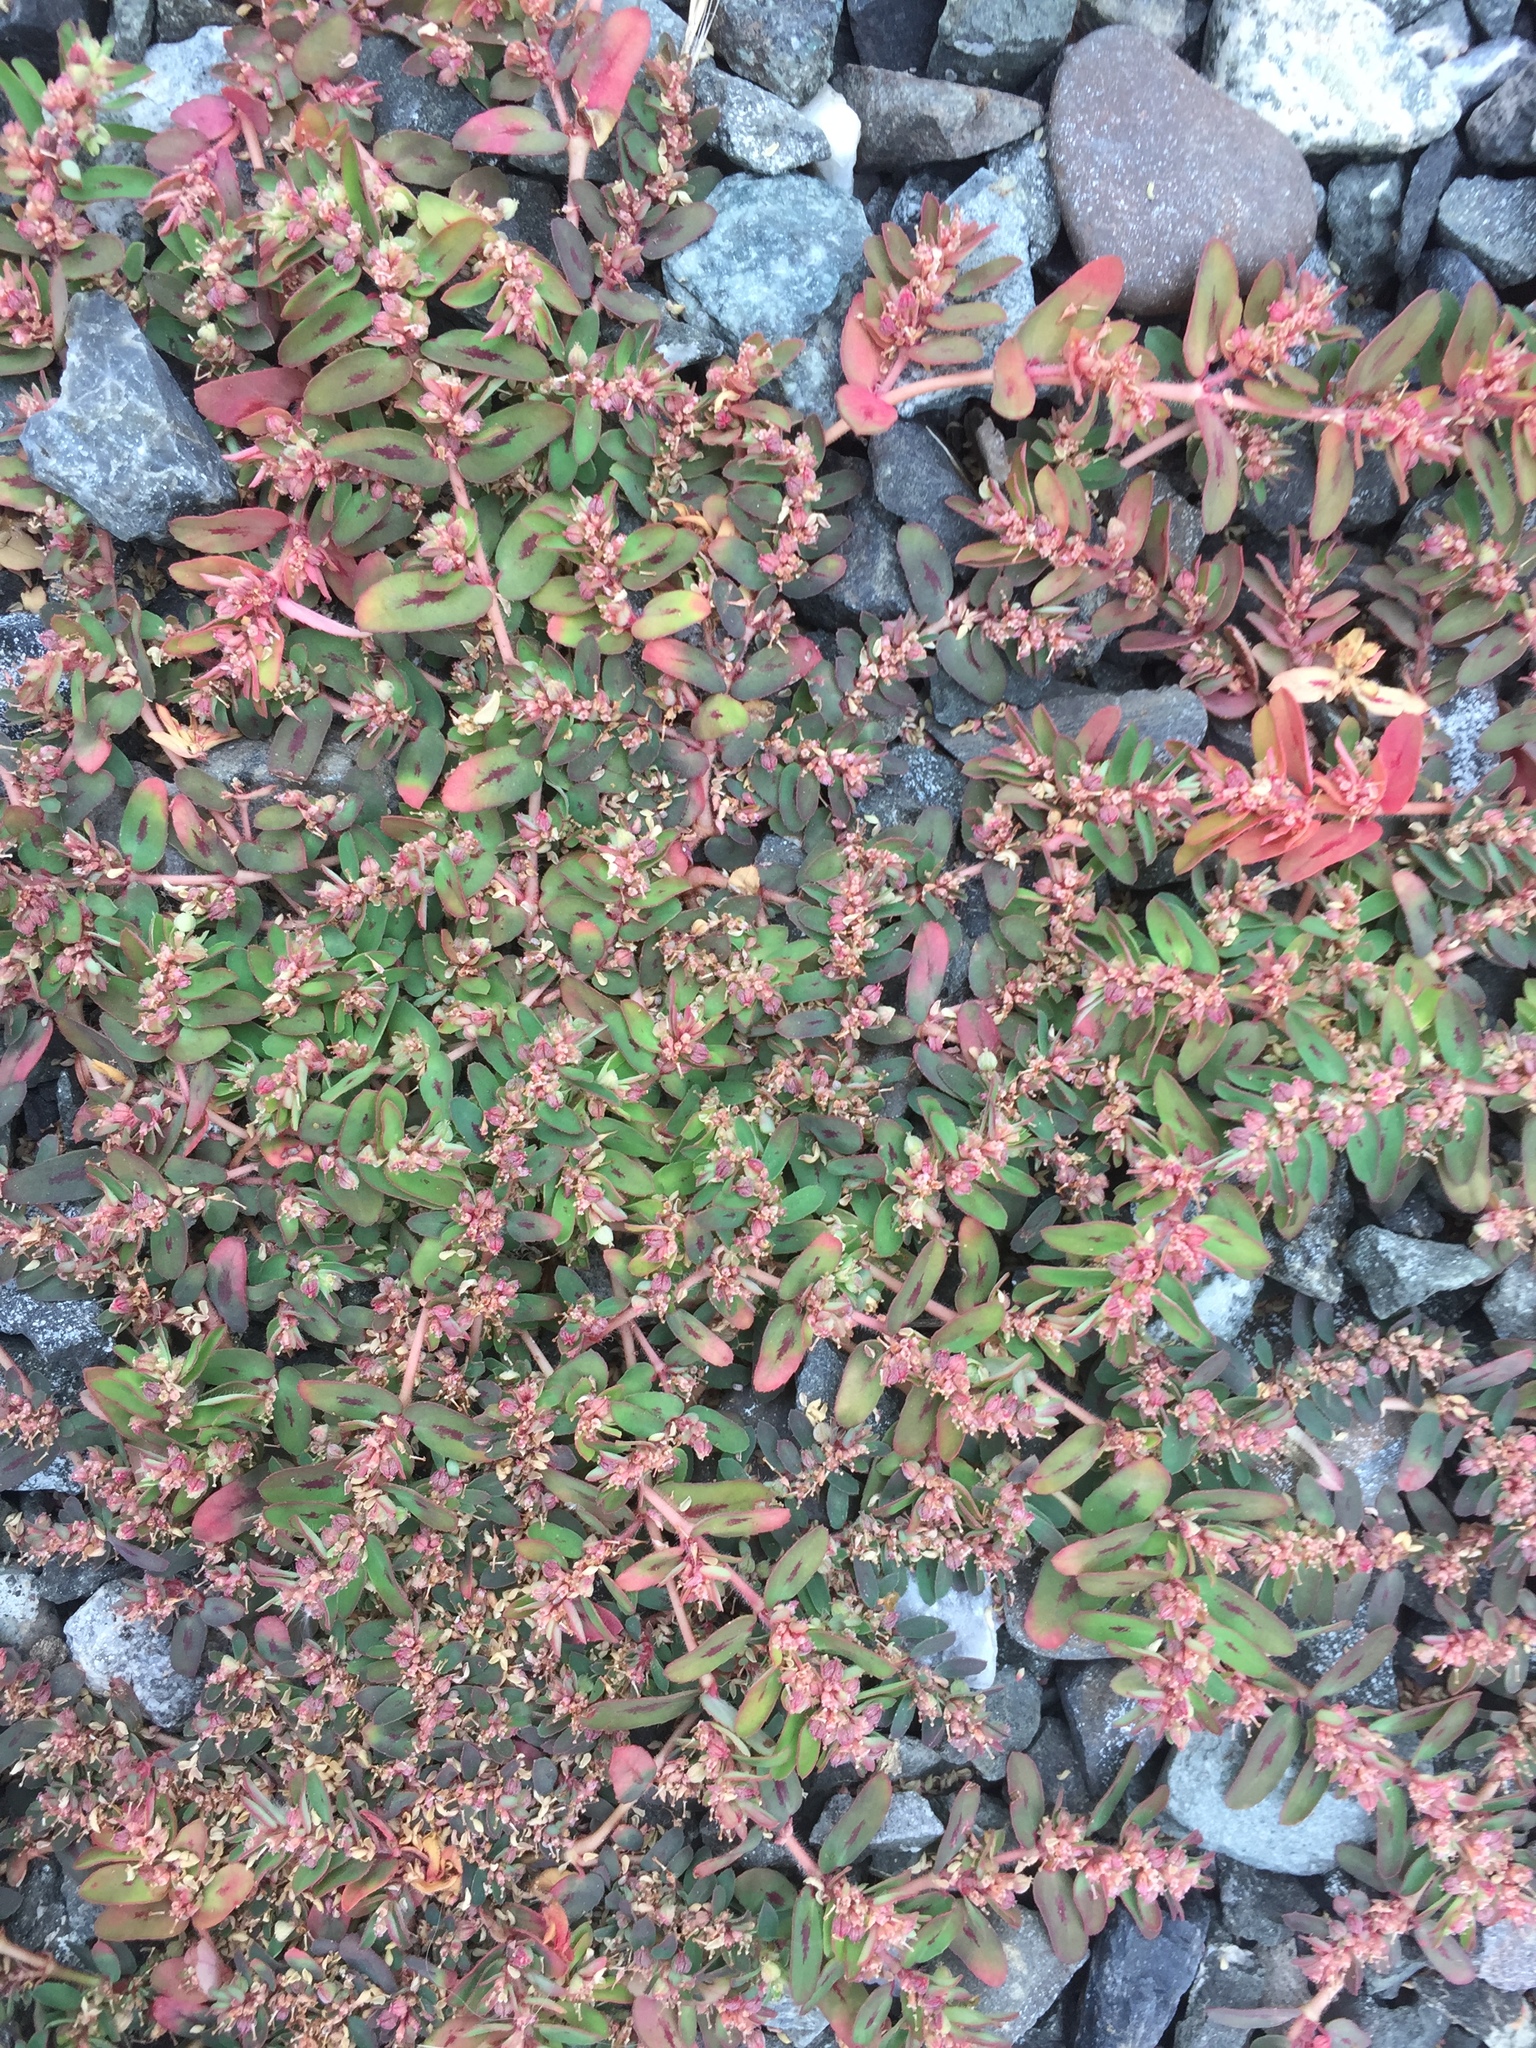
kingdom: Plantae
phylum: Tracheophyta
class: Magnoliopsida
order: Malpighiales
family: Euphorbiaceae
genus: Euphorbia
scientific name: Euphorbia maculata
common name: Spotted spurge
